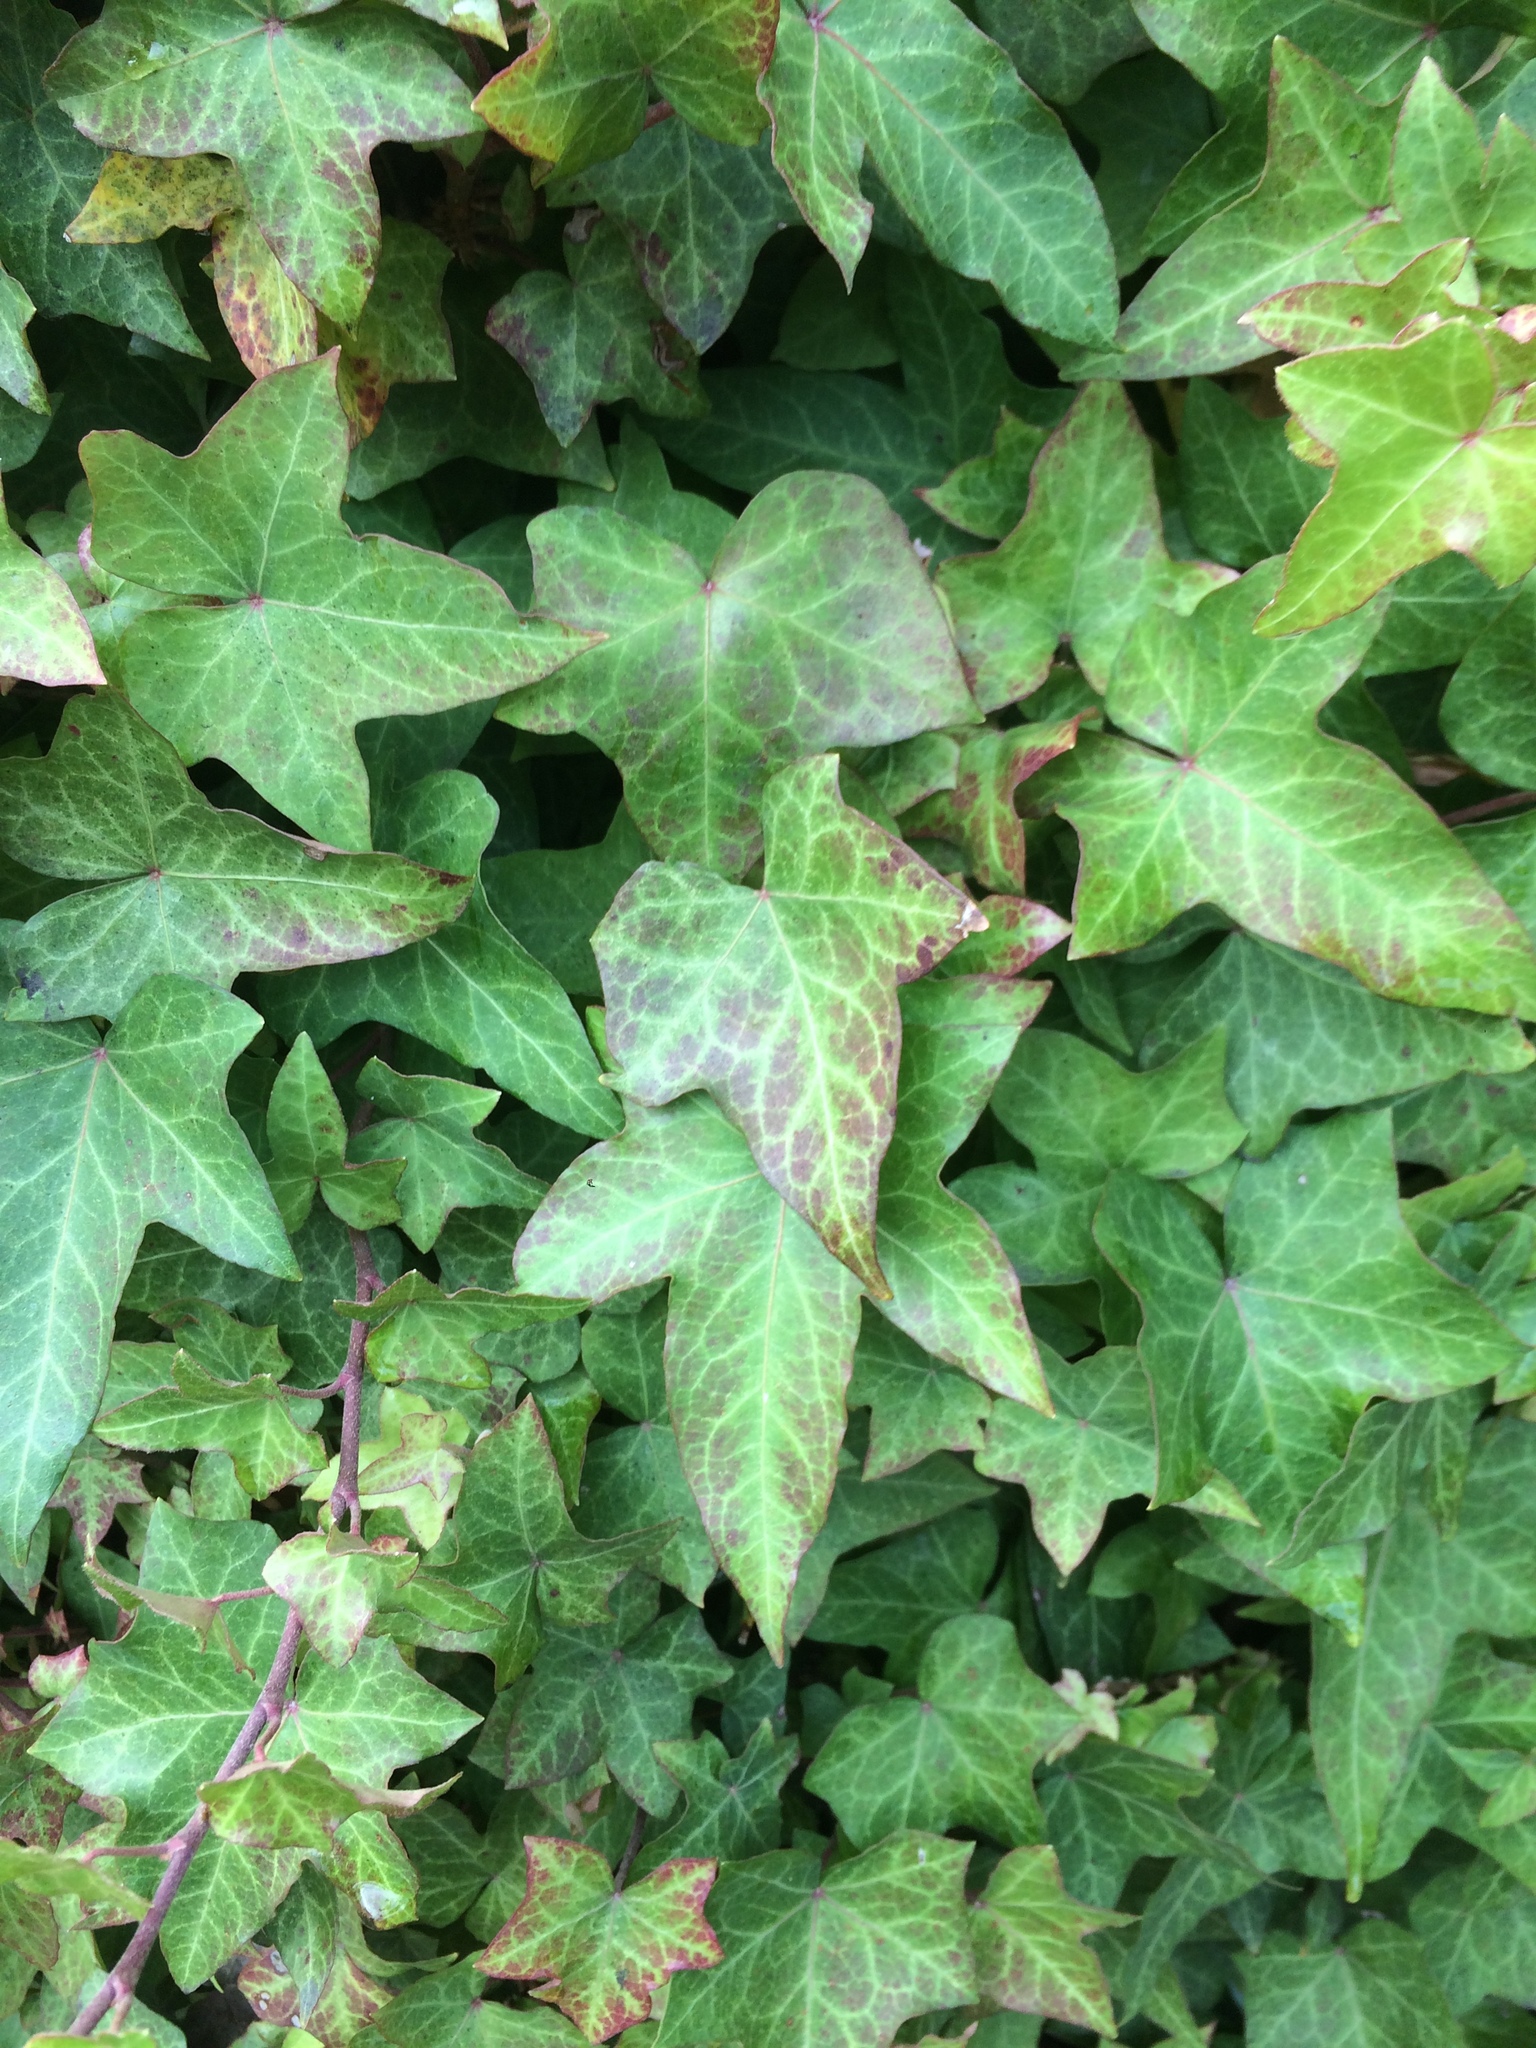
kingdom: Plantae
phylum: Tracheophyta
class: Magnoliopsida
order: Apiales
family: Araliaceae
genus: Hedera
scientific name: Hedera helix
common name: Ivy
